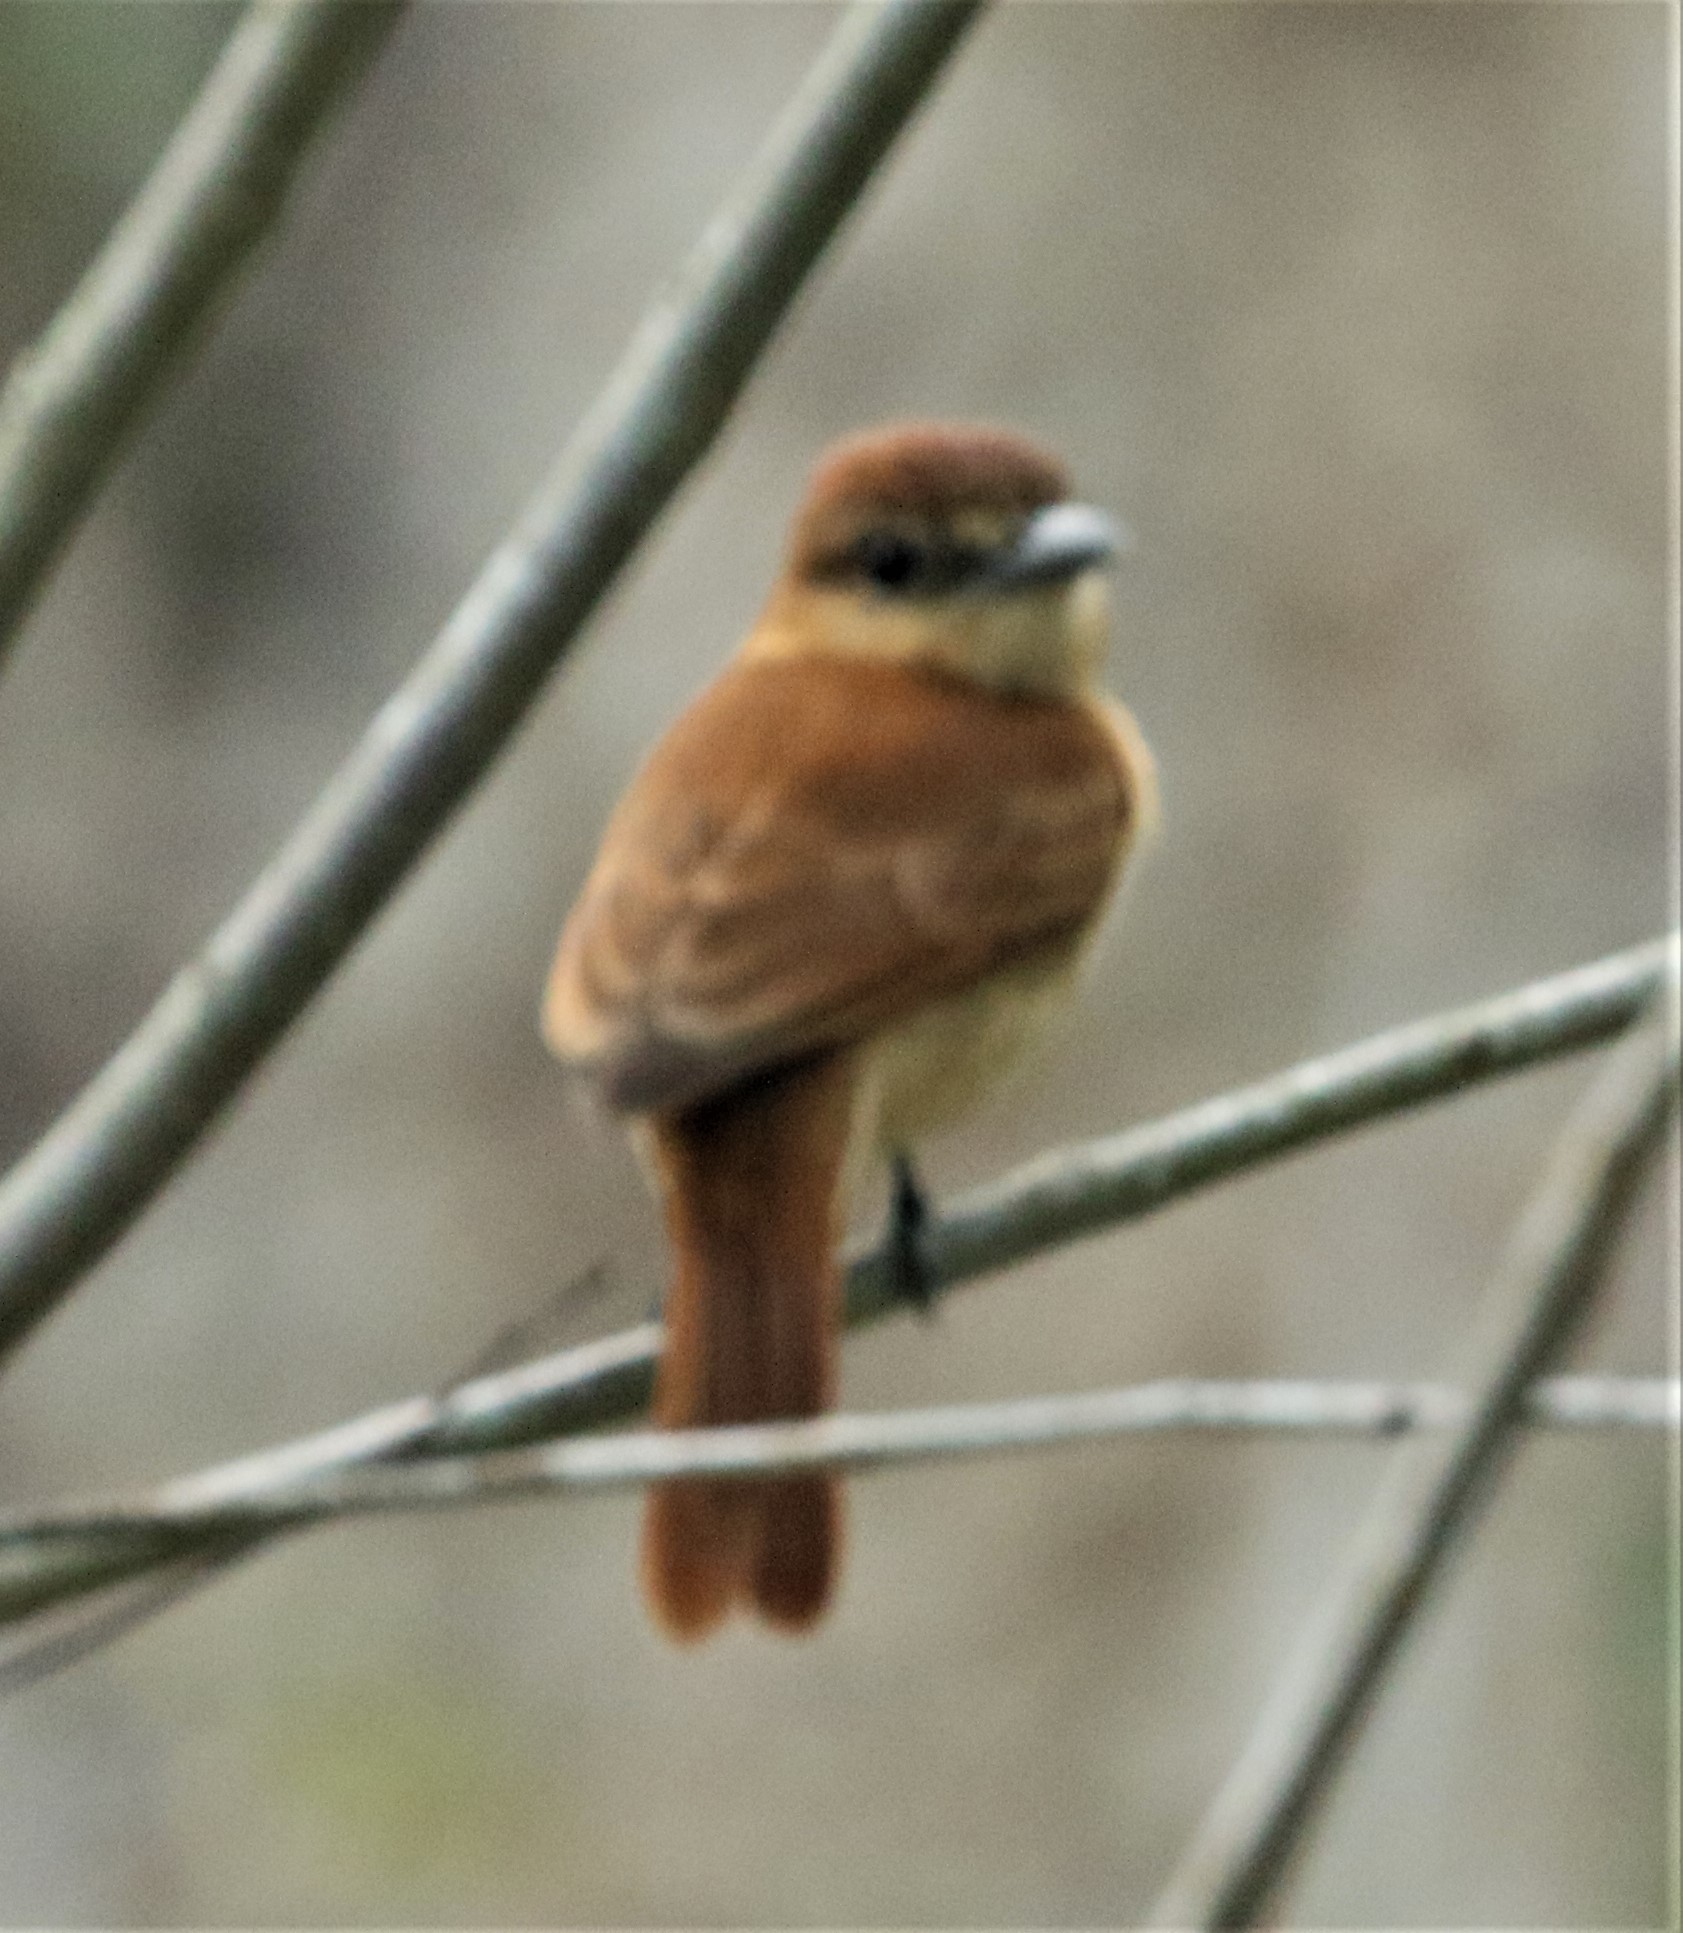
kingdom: Animalia
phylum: Chordata
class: Aves
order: Passeriformes
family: Cotingidae
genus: Pachyramphus
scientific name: Pachyramphus cinnamomeus
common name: Cinnamon becard
